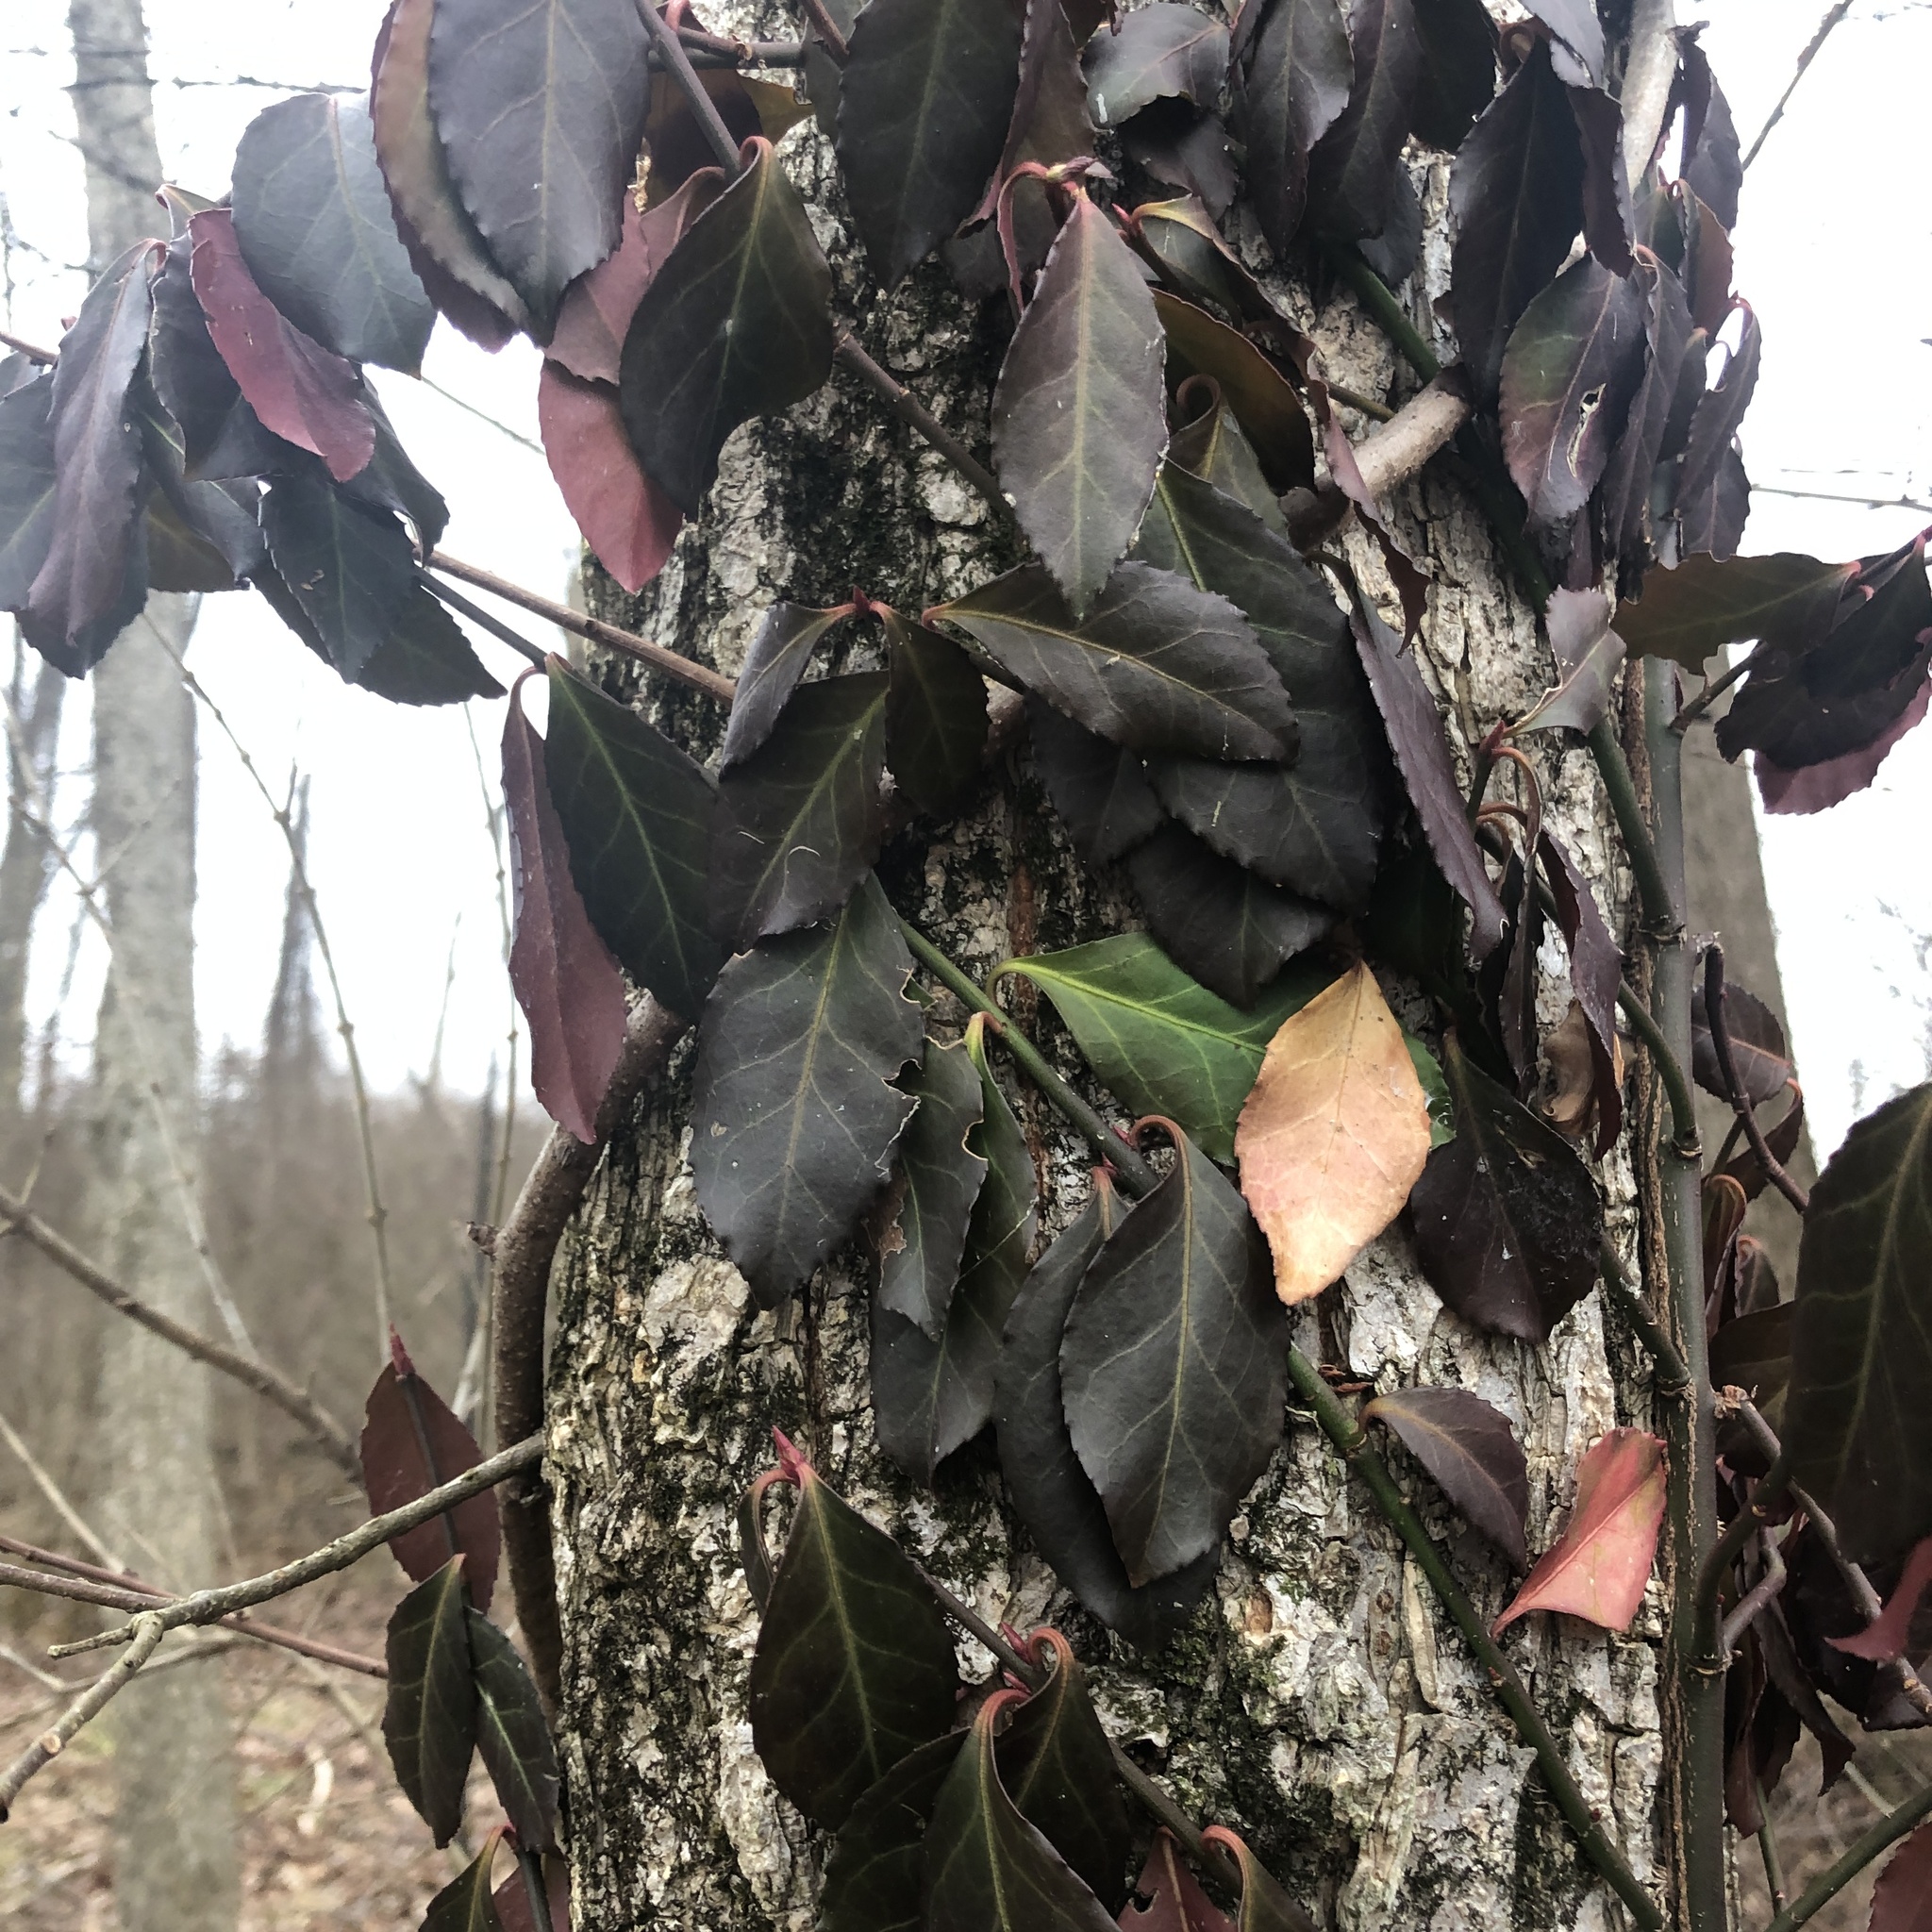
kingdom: Plantae
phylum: Tracheophyta
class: Magnoliopsida
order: Celastrales
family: Celastraceae
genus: Euonymus
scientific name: Euonymus fortunei
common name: Climbing euonymus
